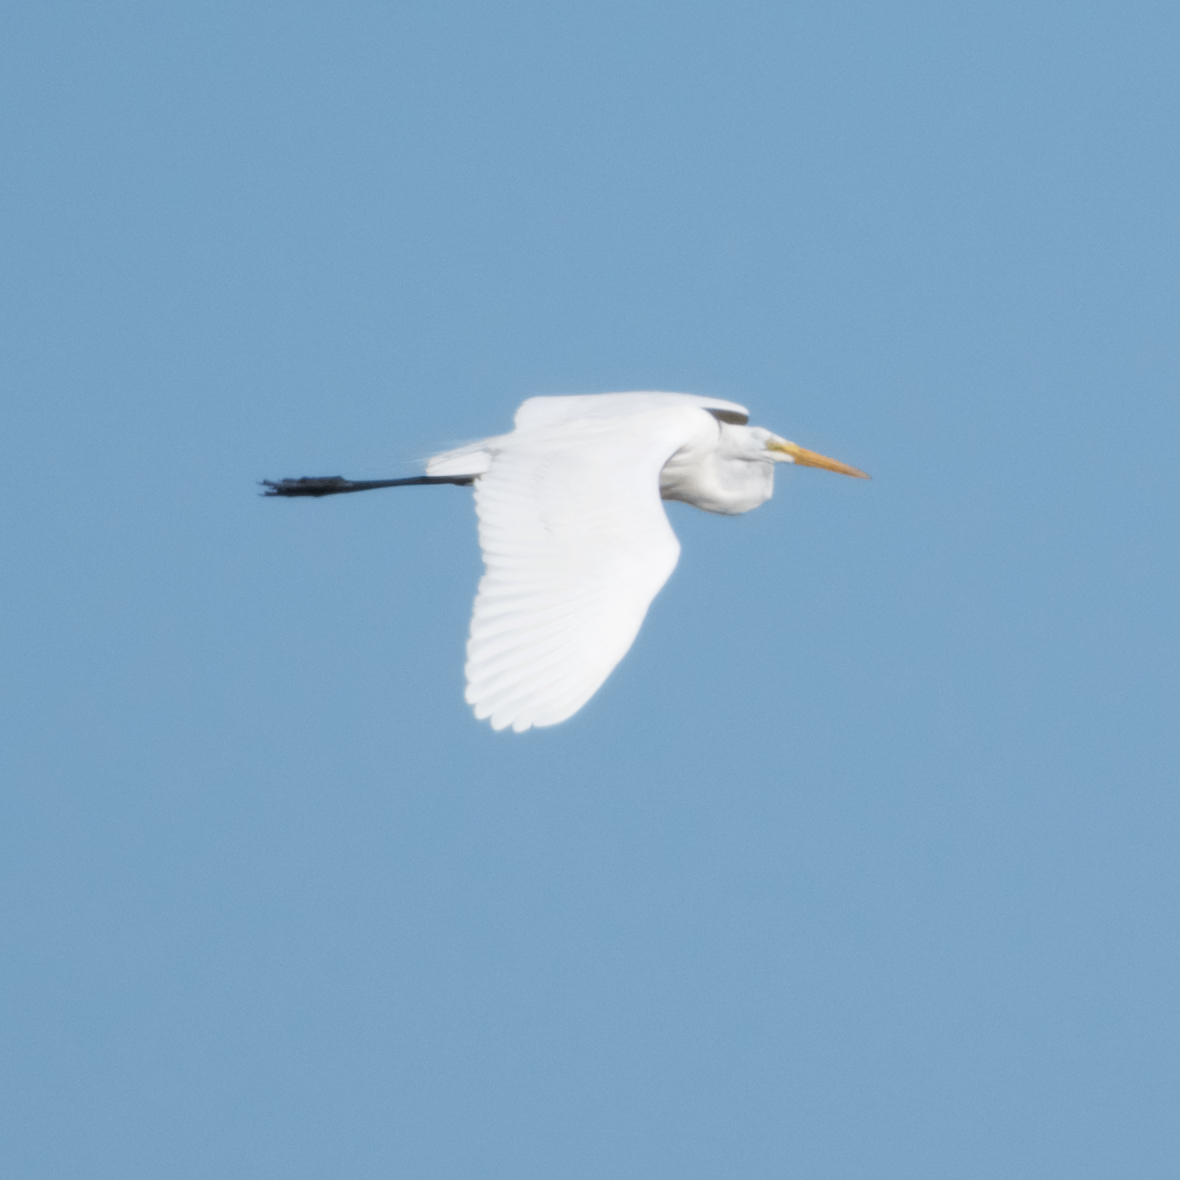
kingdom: Animalia
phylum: Chordata
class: Aves
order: Pelecaniformes
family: Ardeidae
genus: Ardea
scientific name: Ardea alba
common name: Great egret
